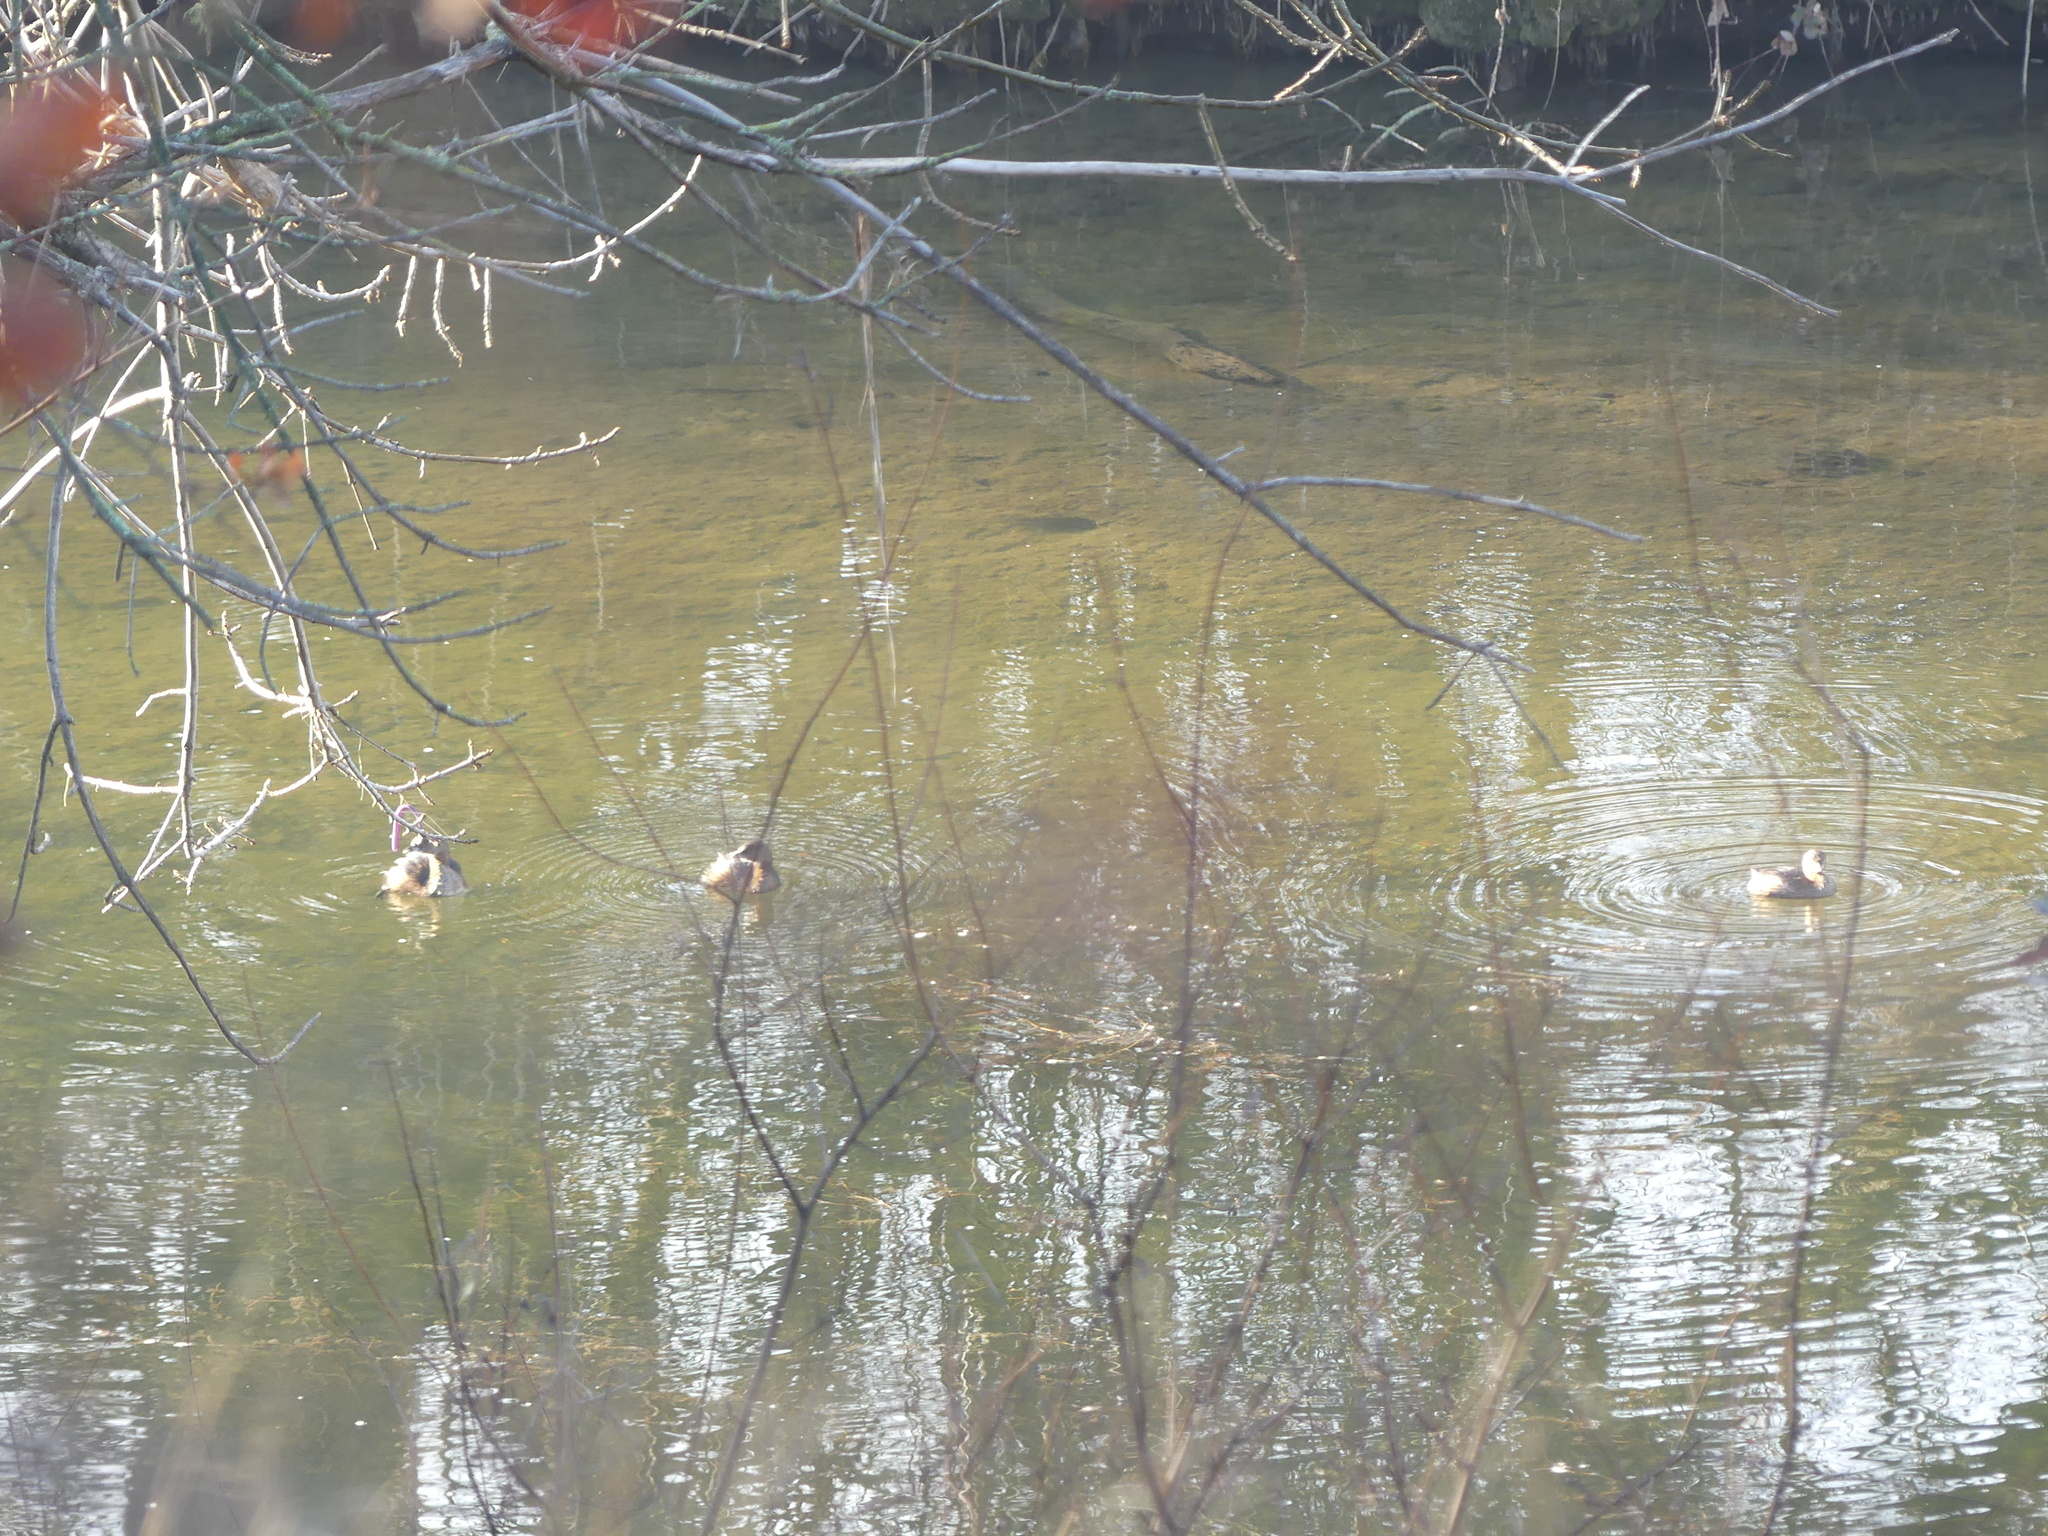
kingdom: Animalia
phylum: Chordata
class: Aves
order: Podicipediformes
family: Podicipedidae
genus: Podilymbus
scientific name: Podilymbus podiceps
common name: Pied-billed grebe
